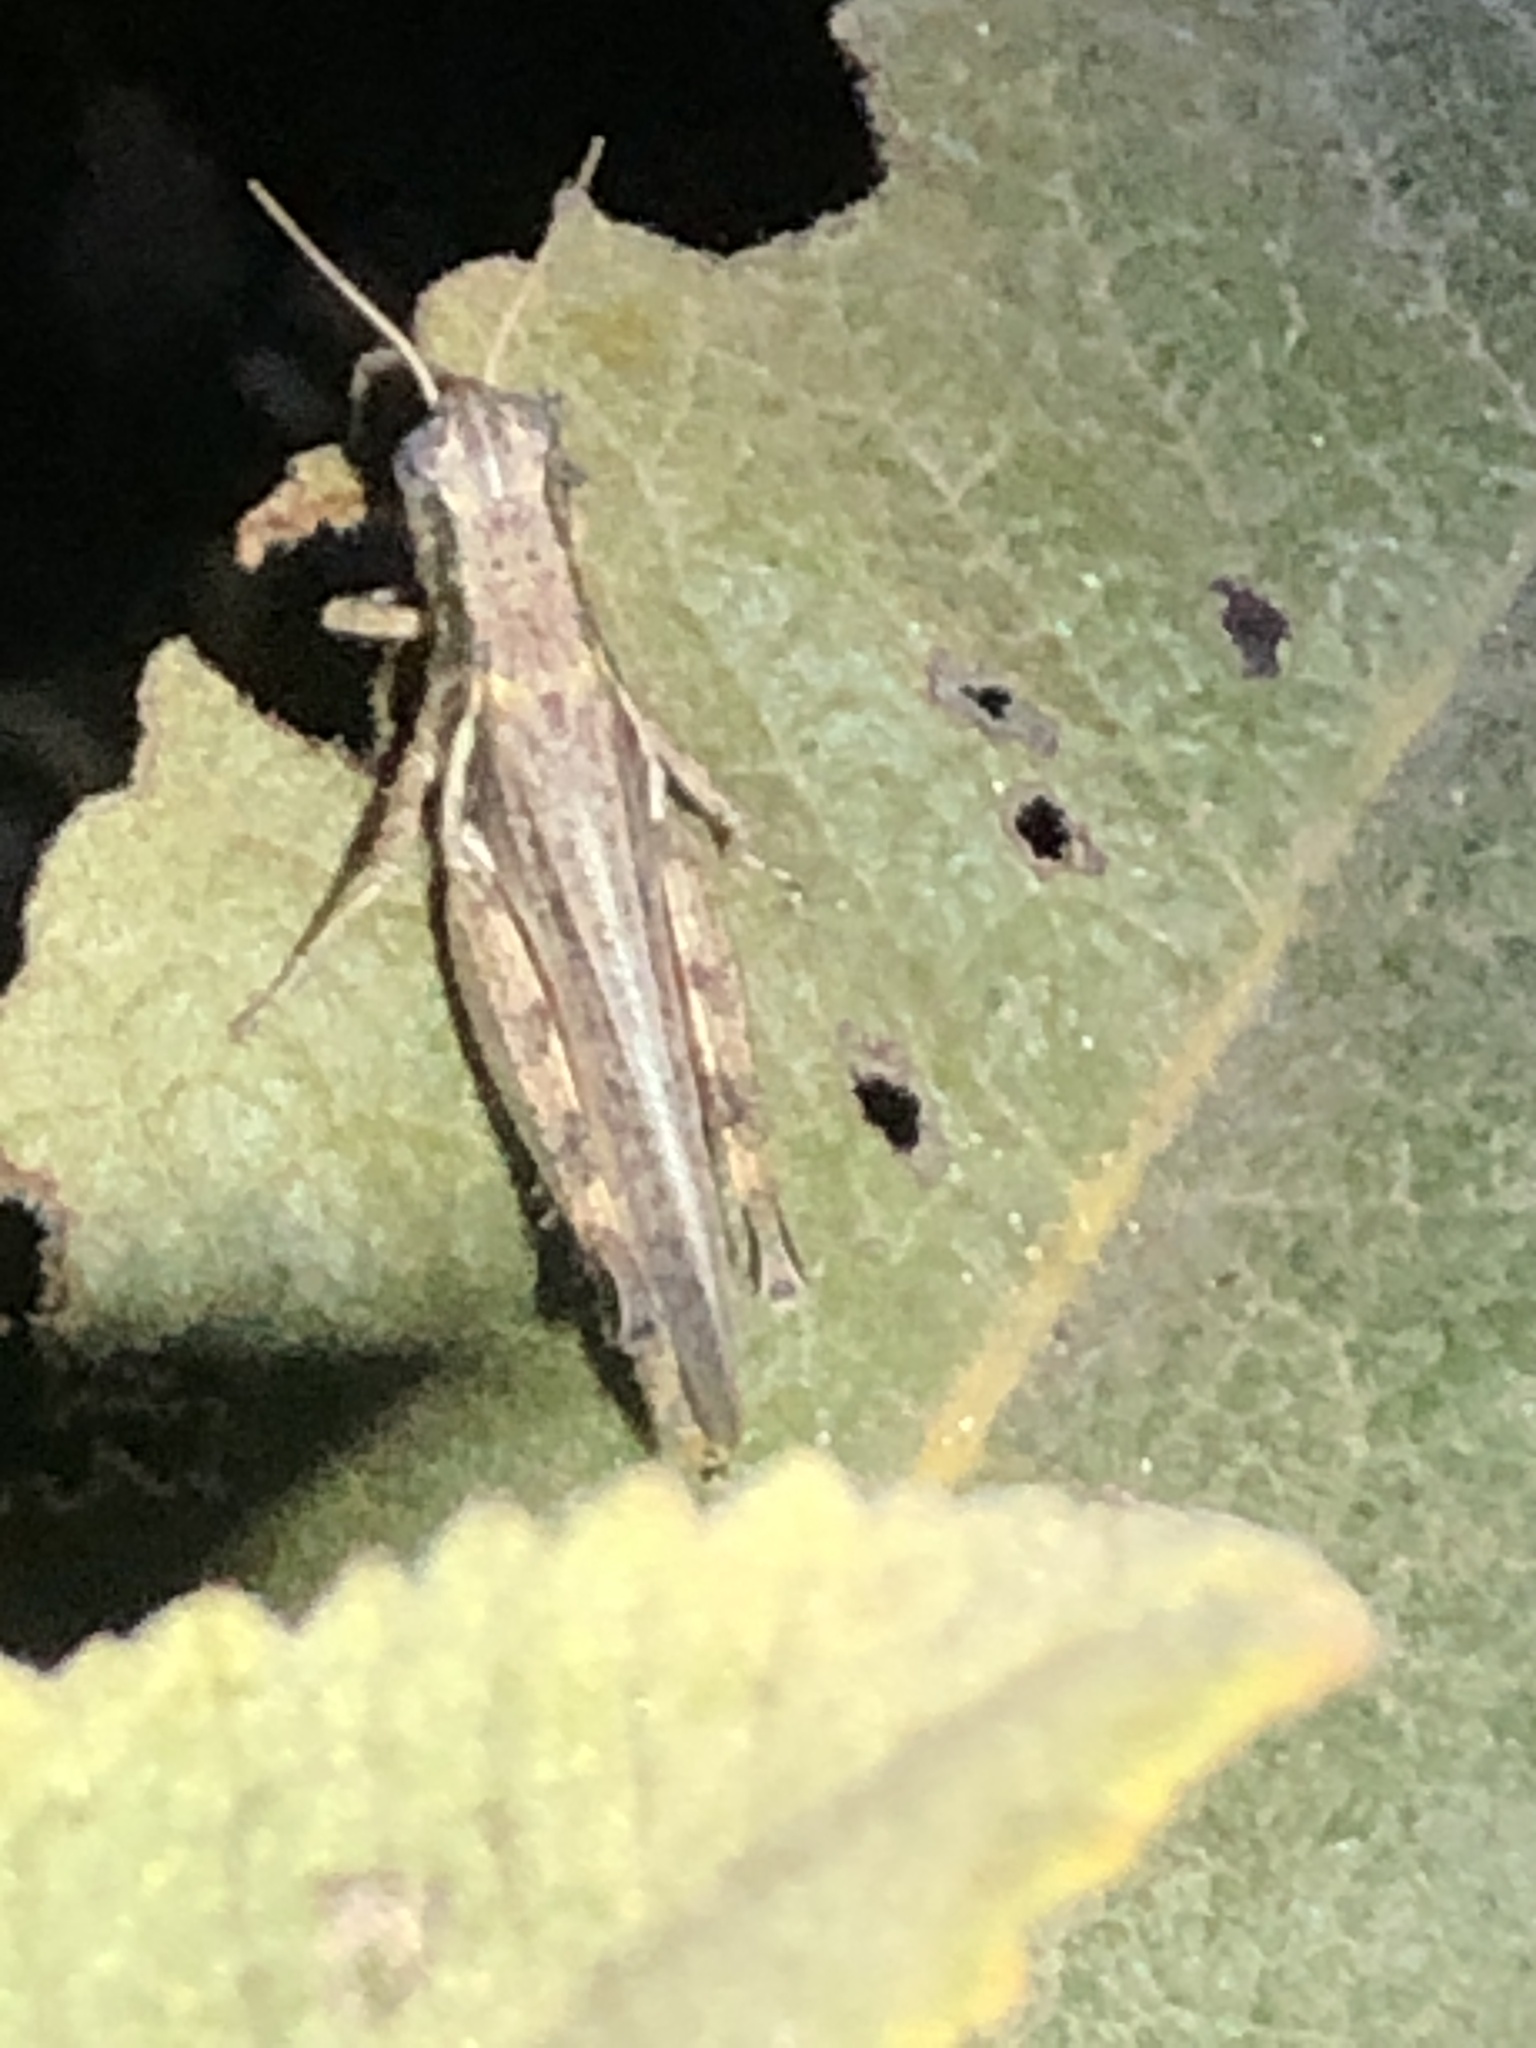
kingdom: Animalia
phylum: Arthropoda
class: Insecta
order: Orthoptera
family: Acrididae
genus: Melanoplus
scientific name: Melanoplus cinereus
